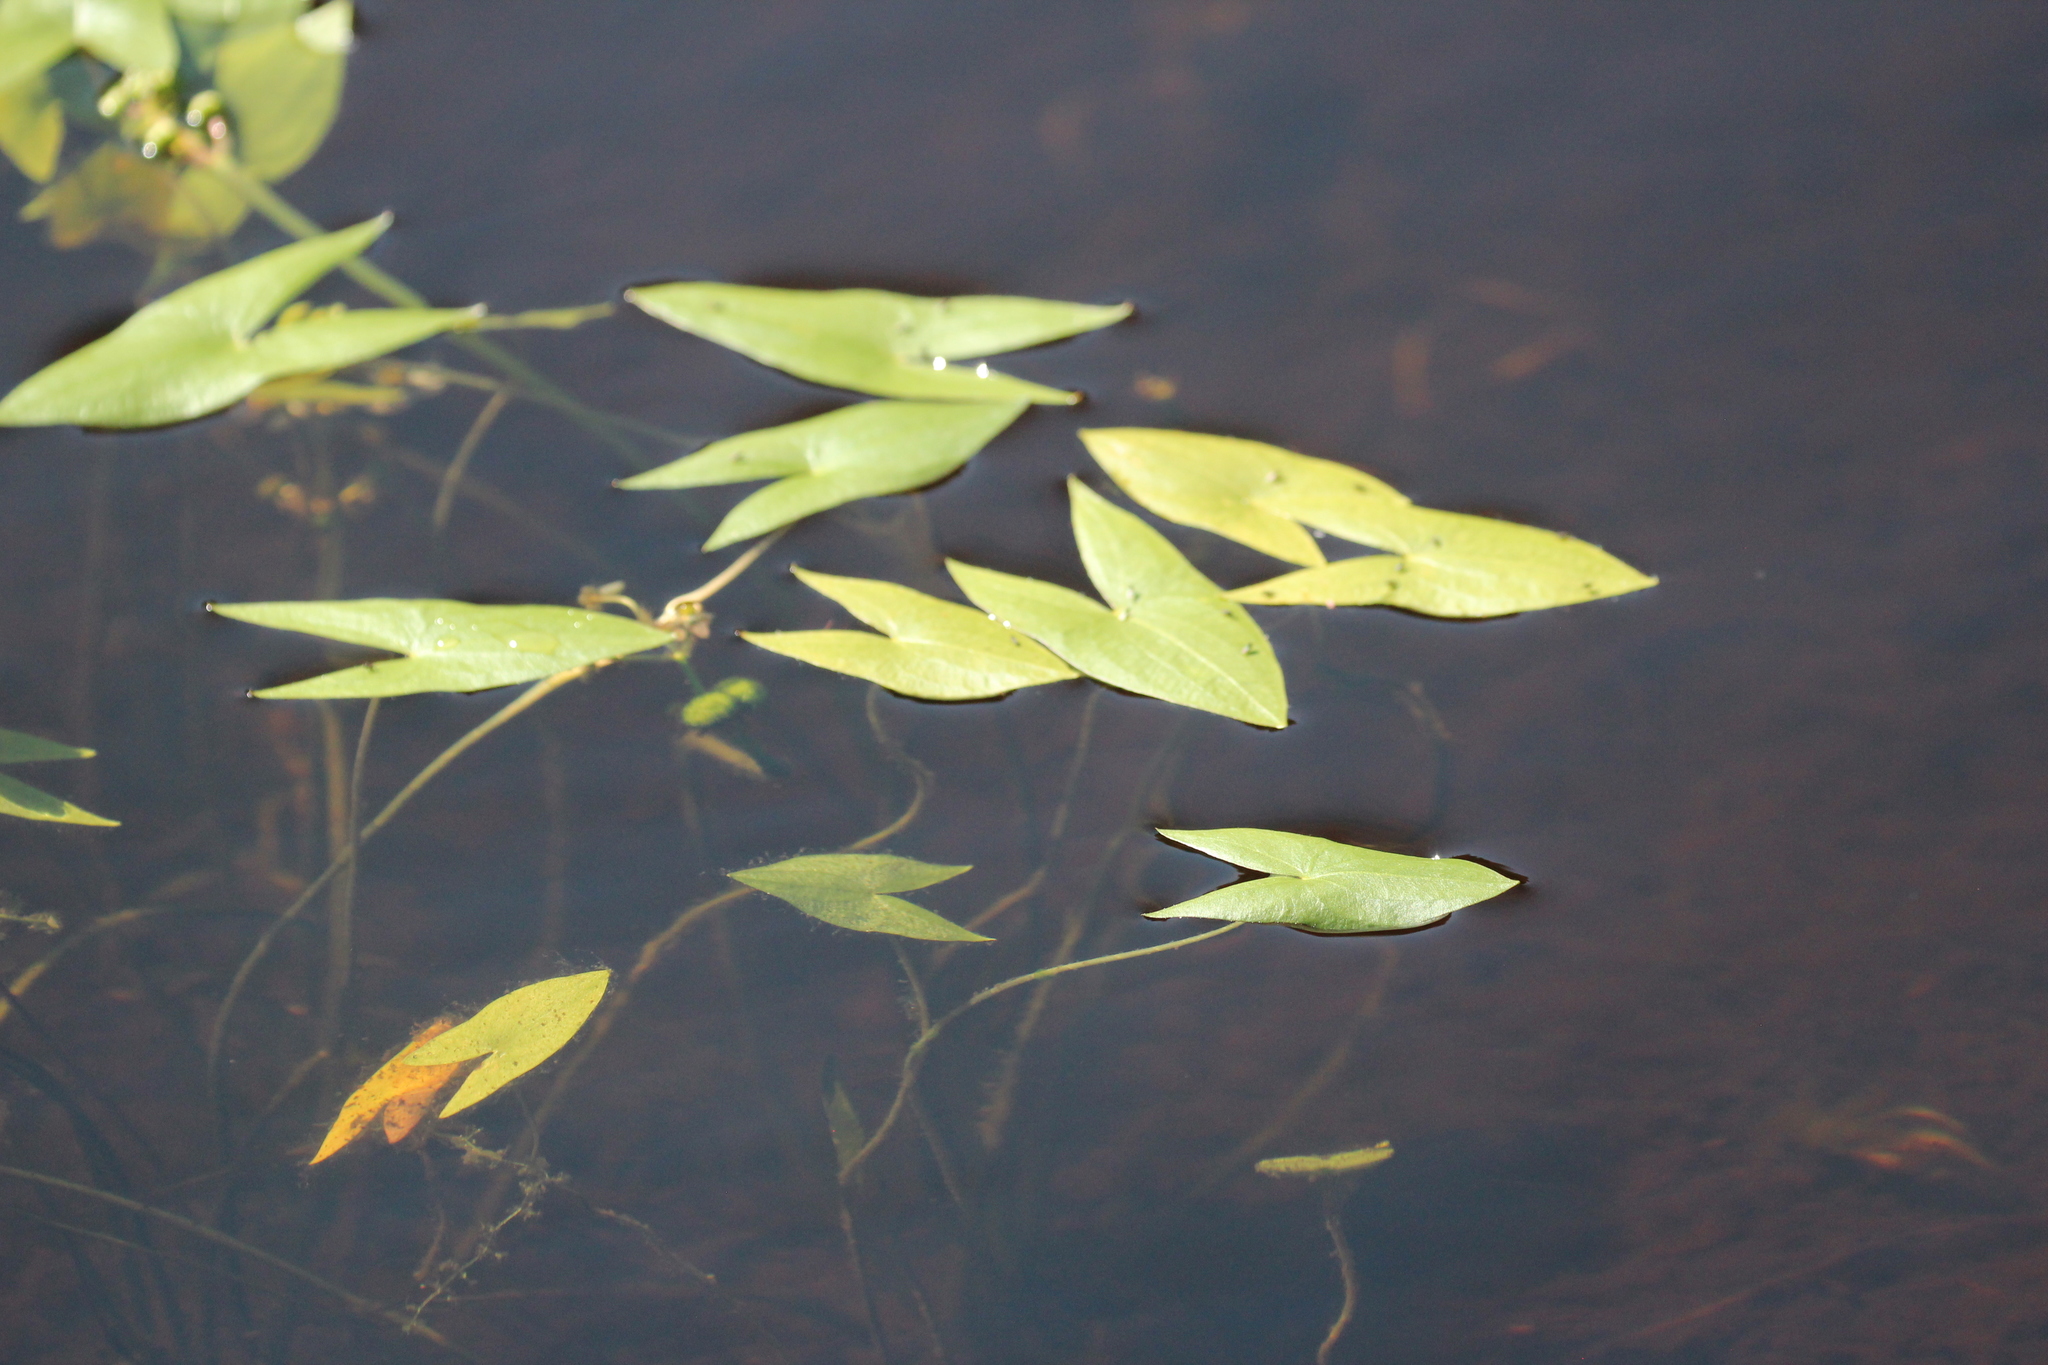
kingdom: Plantae
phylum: Tracheophyta
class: Liliopsida
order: Alismatales
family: Alismataceae
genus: Sagittaria
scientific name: Sagittaria cuneata
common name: Northern arrowhead
